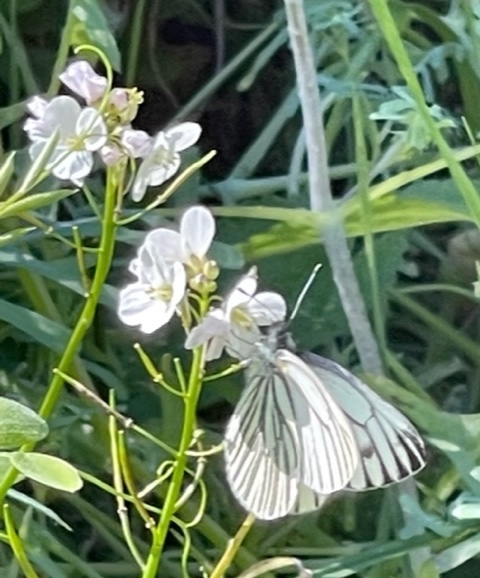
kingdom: Plantae
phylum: Tracheophyta
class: Magnoliopsida
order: Brassicales
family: Brassicaceae
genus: Cardamine
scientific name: Cardamine californica
